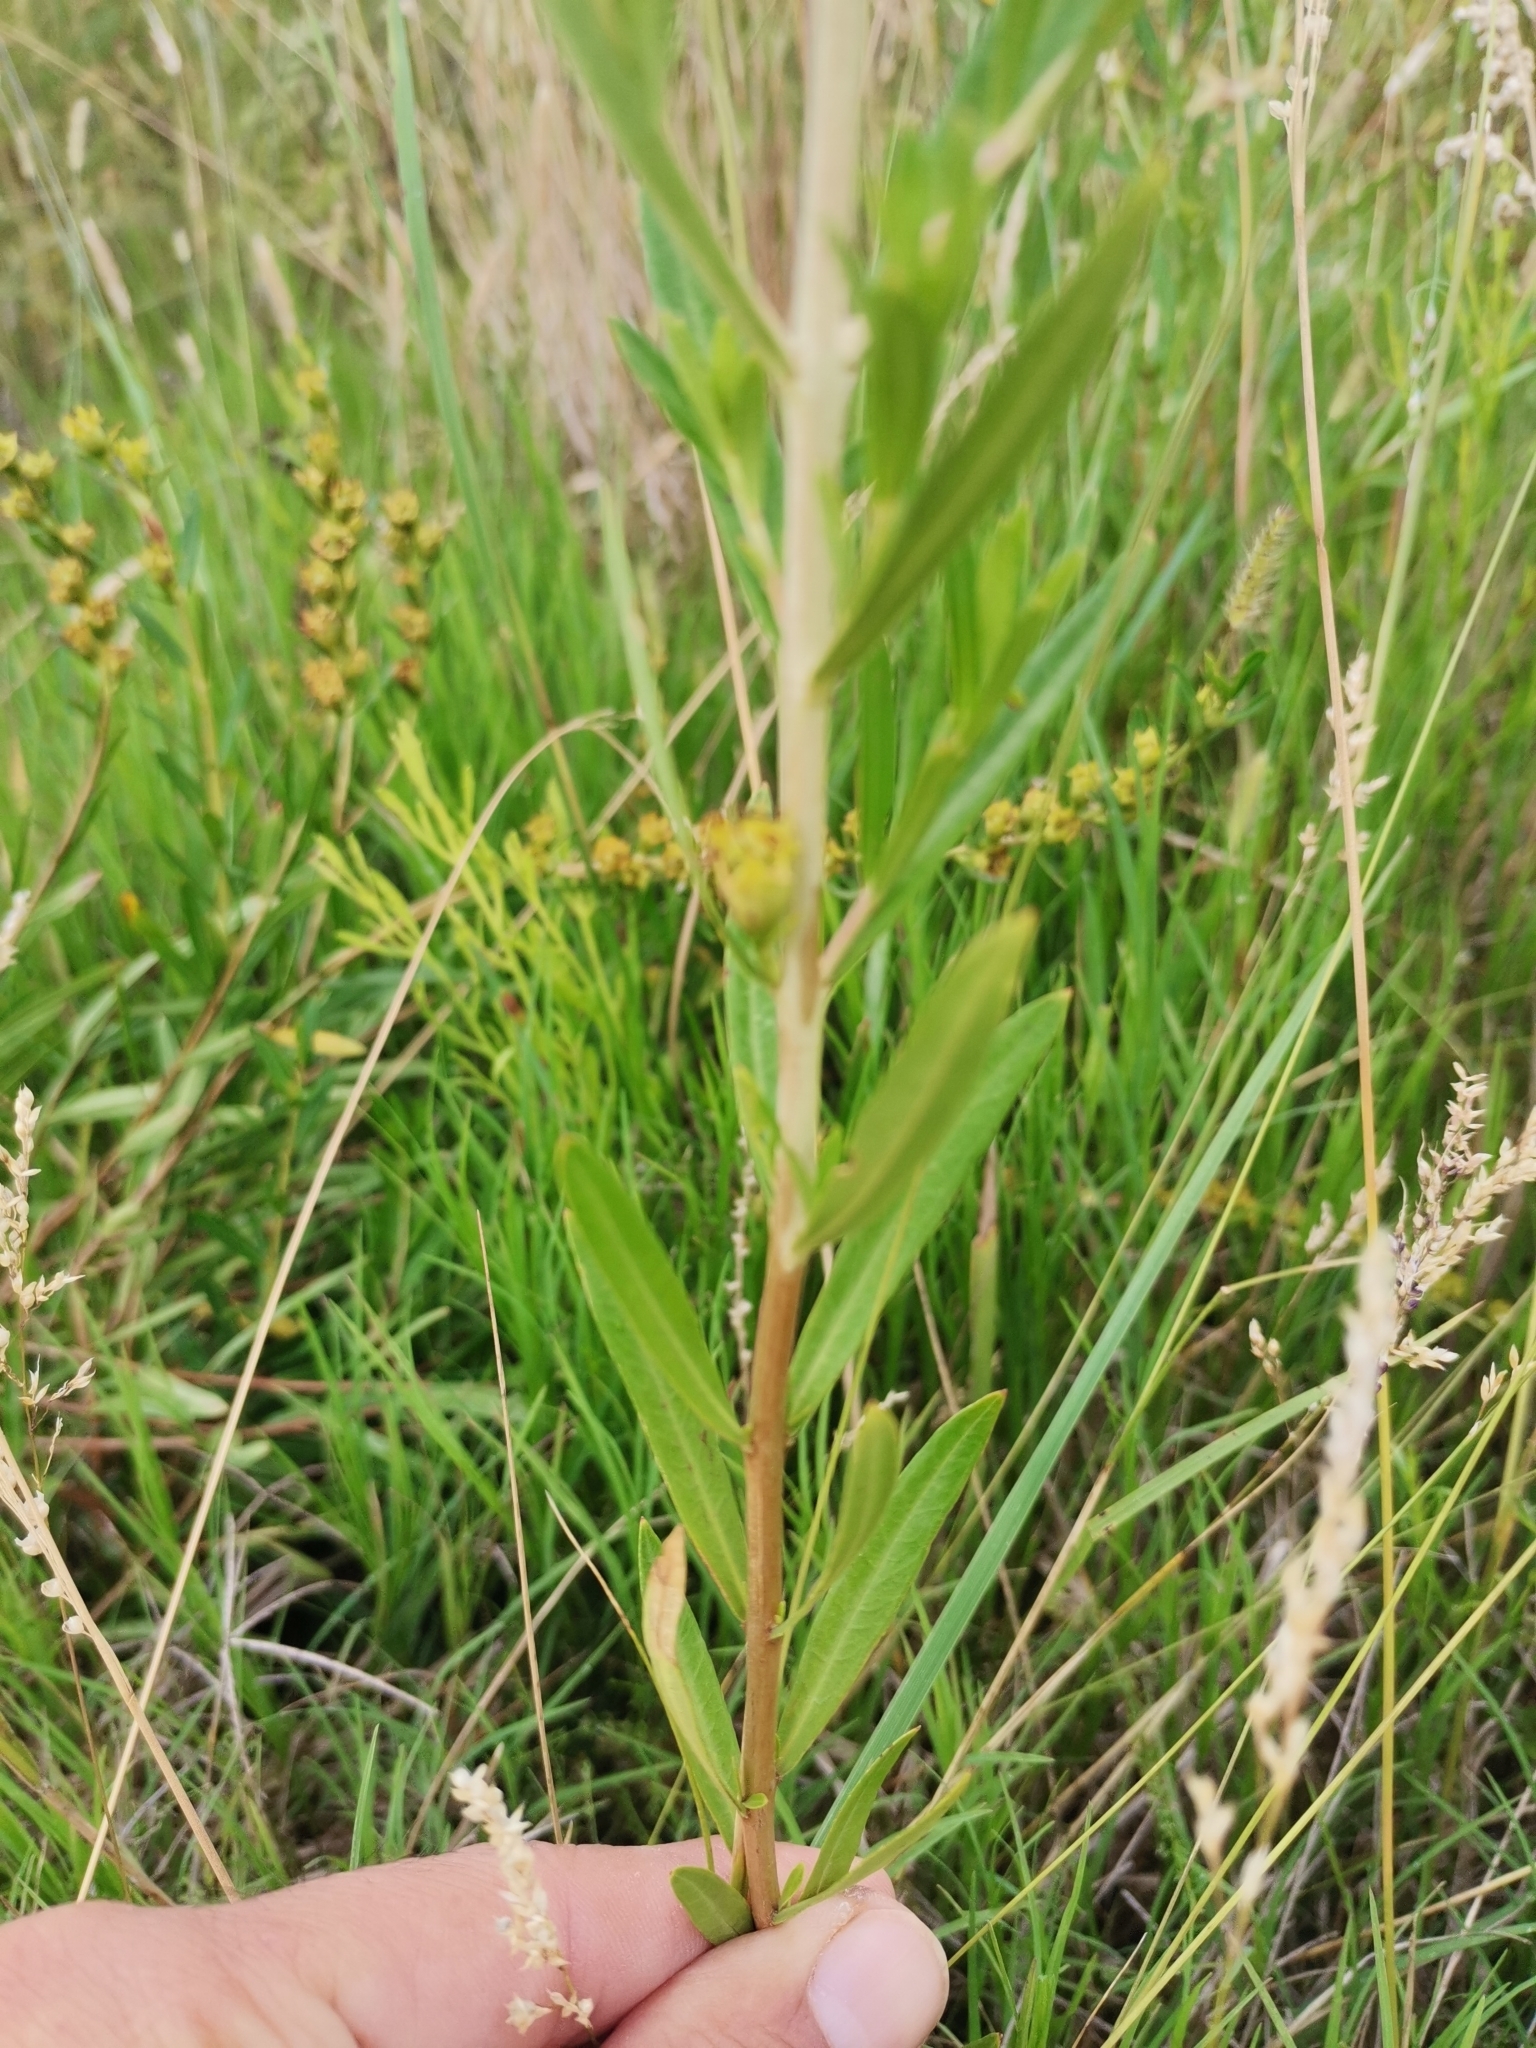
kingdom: Plantae
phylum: Tracheophyta
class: Magnoliopsida
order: Myrtales
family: Lythraceae
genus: Heimia
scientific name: Heimia salicifolia
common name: Willow-leaf heimia
